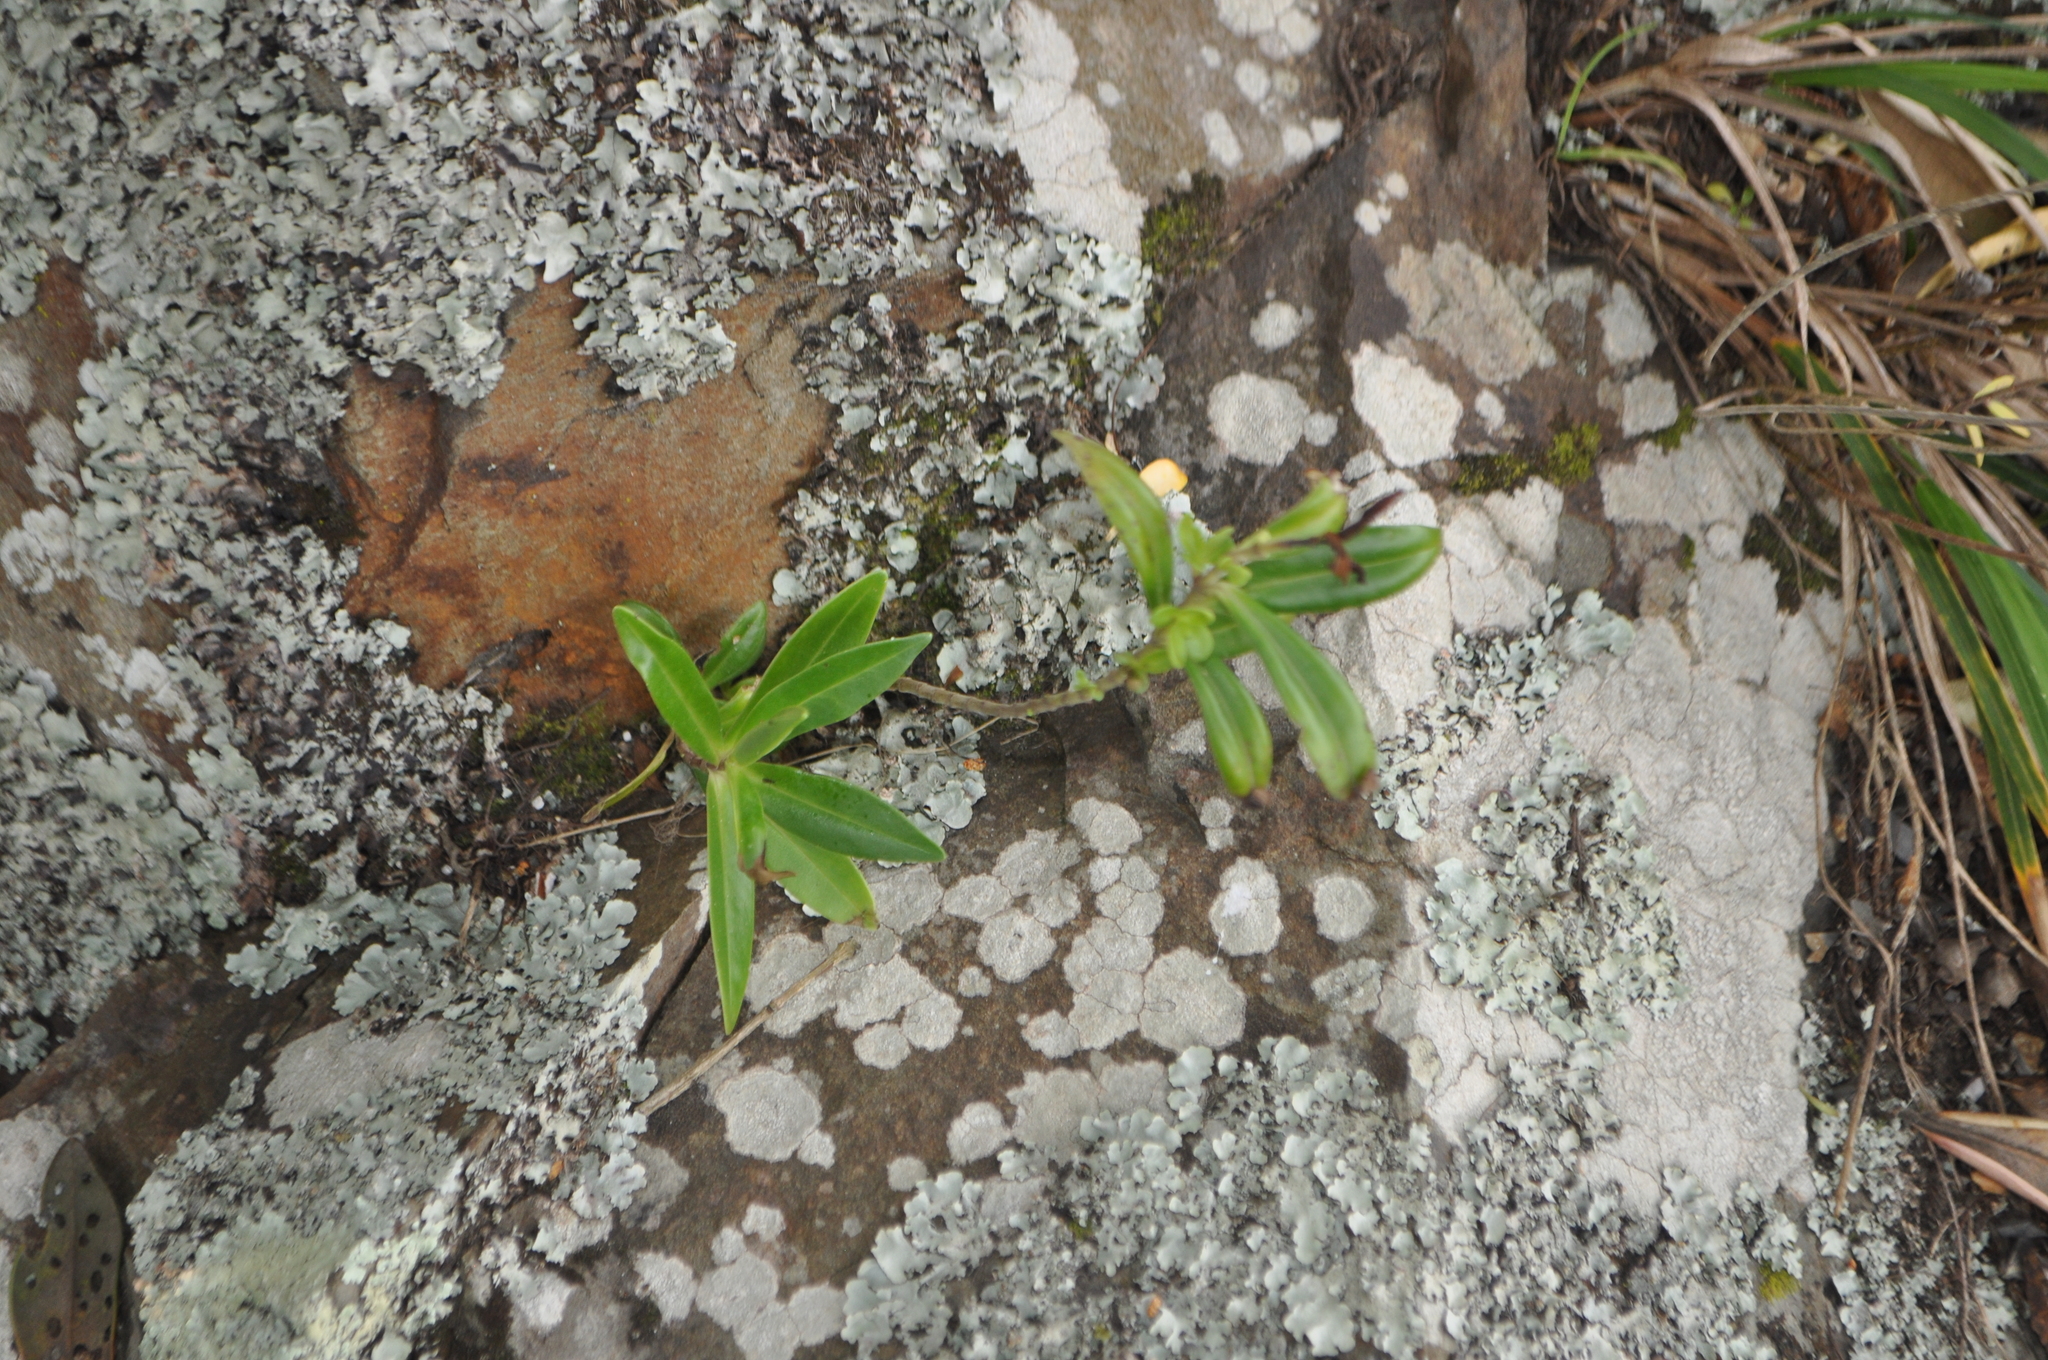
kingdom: Plantae
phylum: Tracheophyta
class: Magnoliopsida
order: Lamiales
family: Plantaginaceae
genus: Veronica
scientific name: Veronica stricta
